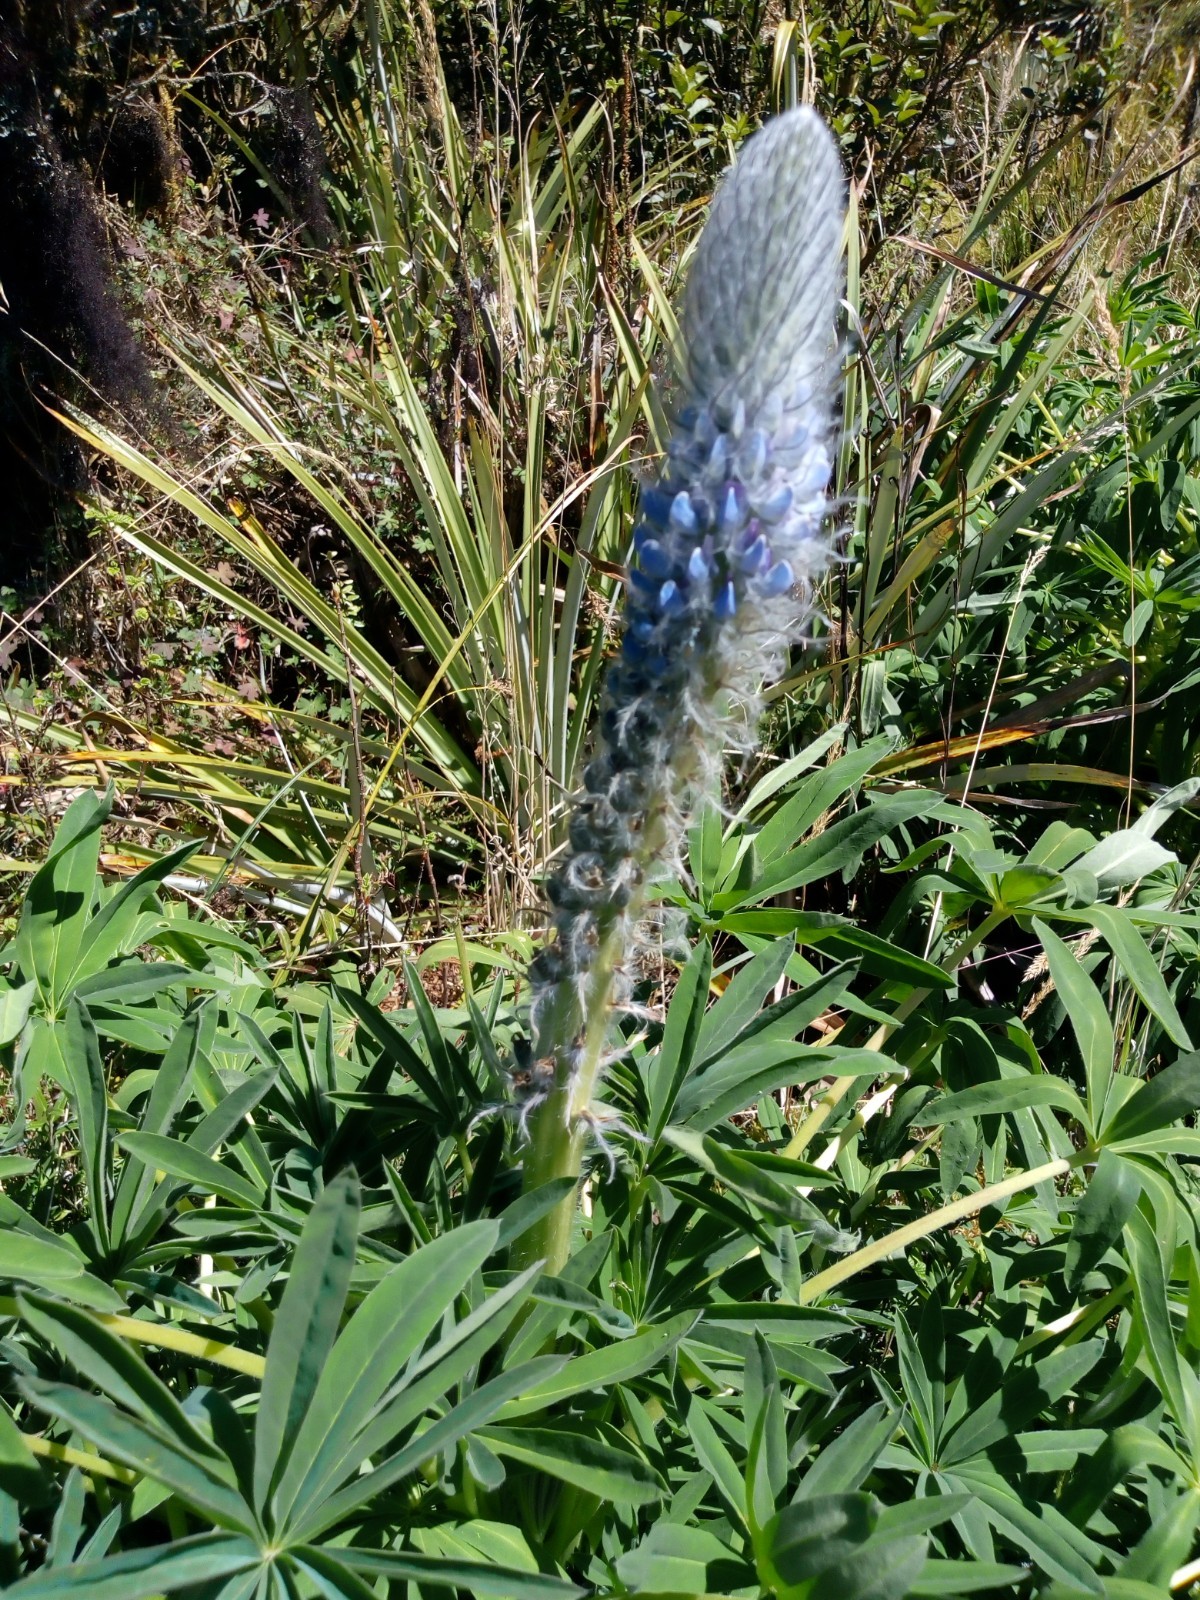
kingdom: Plantae
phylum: Tracheophyta
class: Magnoliopsida
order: Fabales
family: Fabaceae
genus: Lupinus
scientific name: Lupinus triananus
